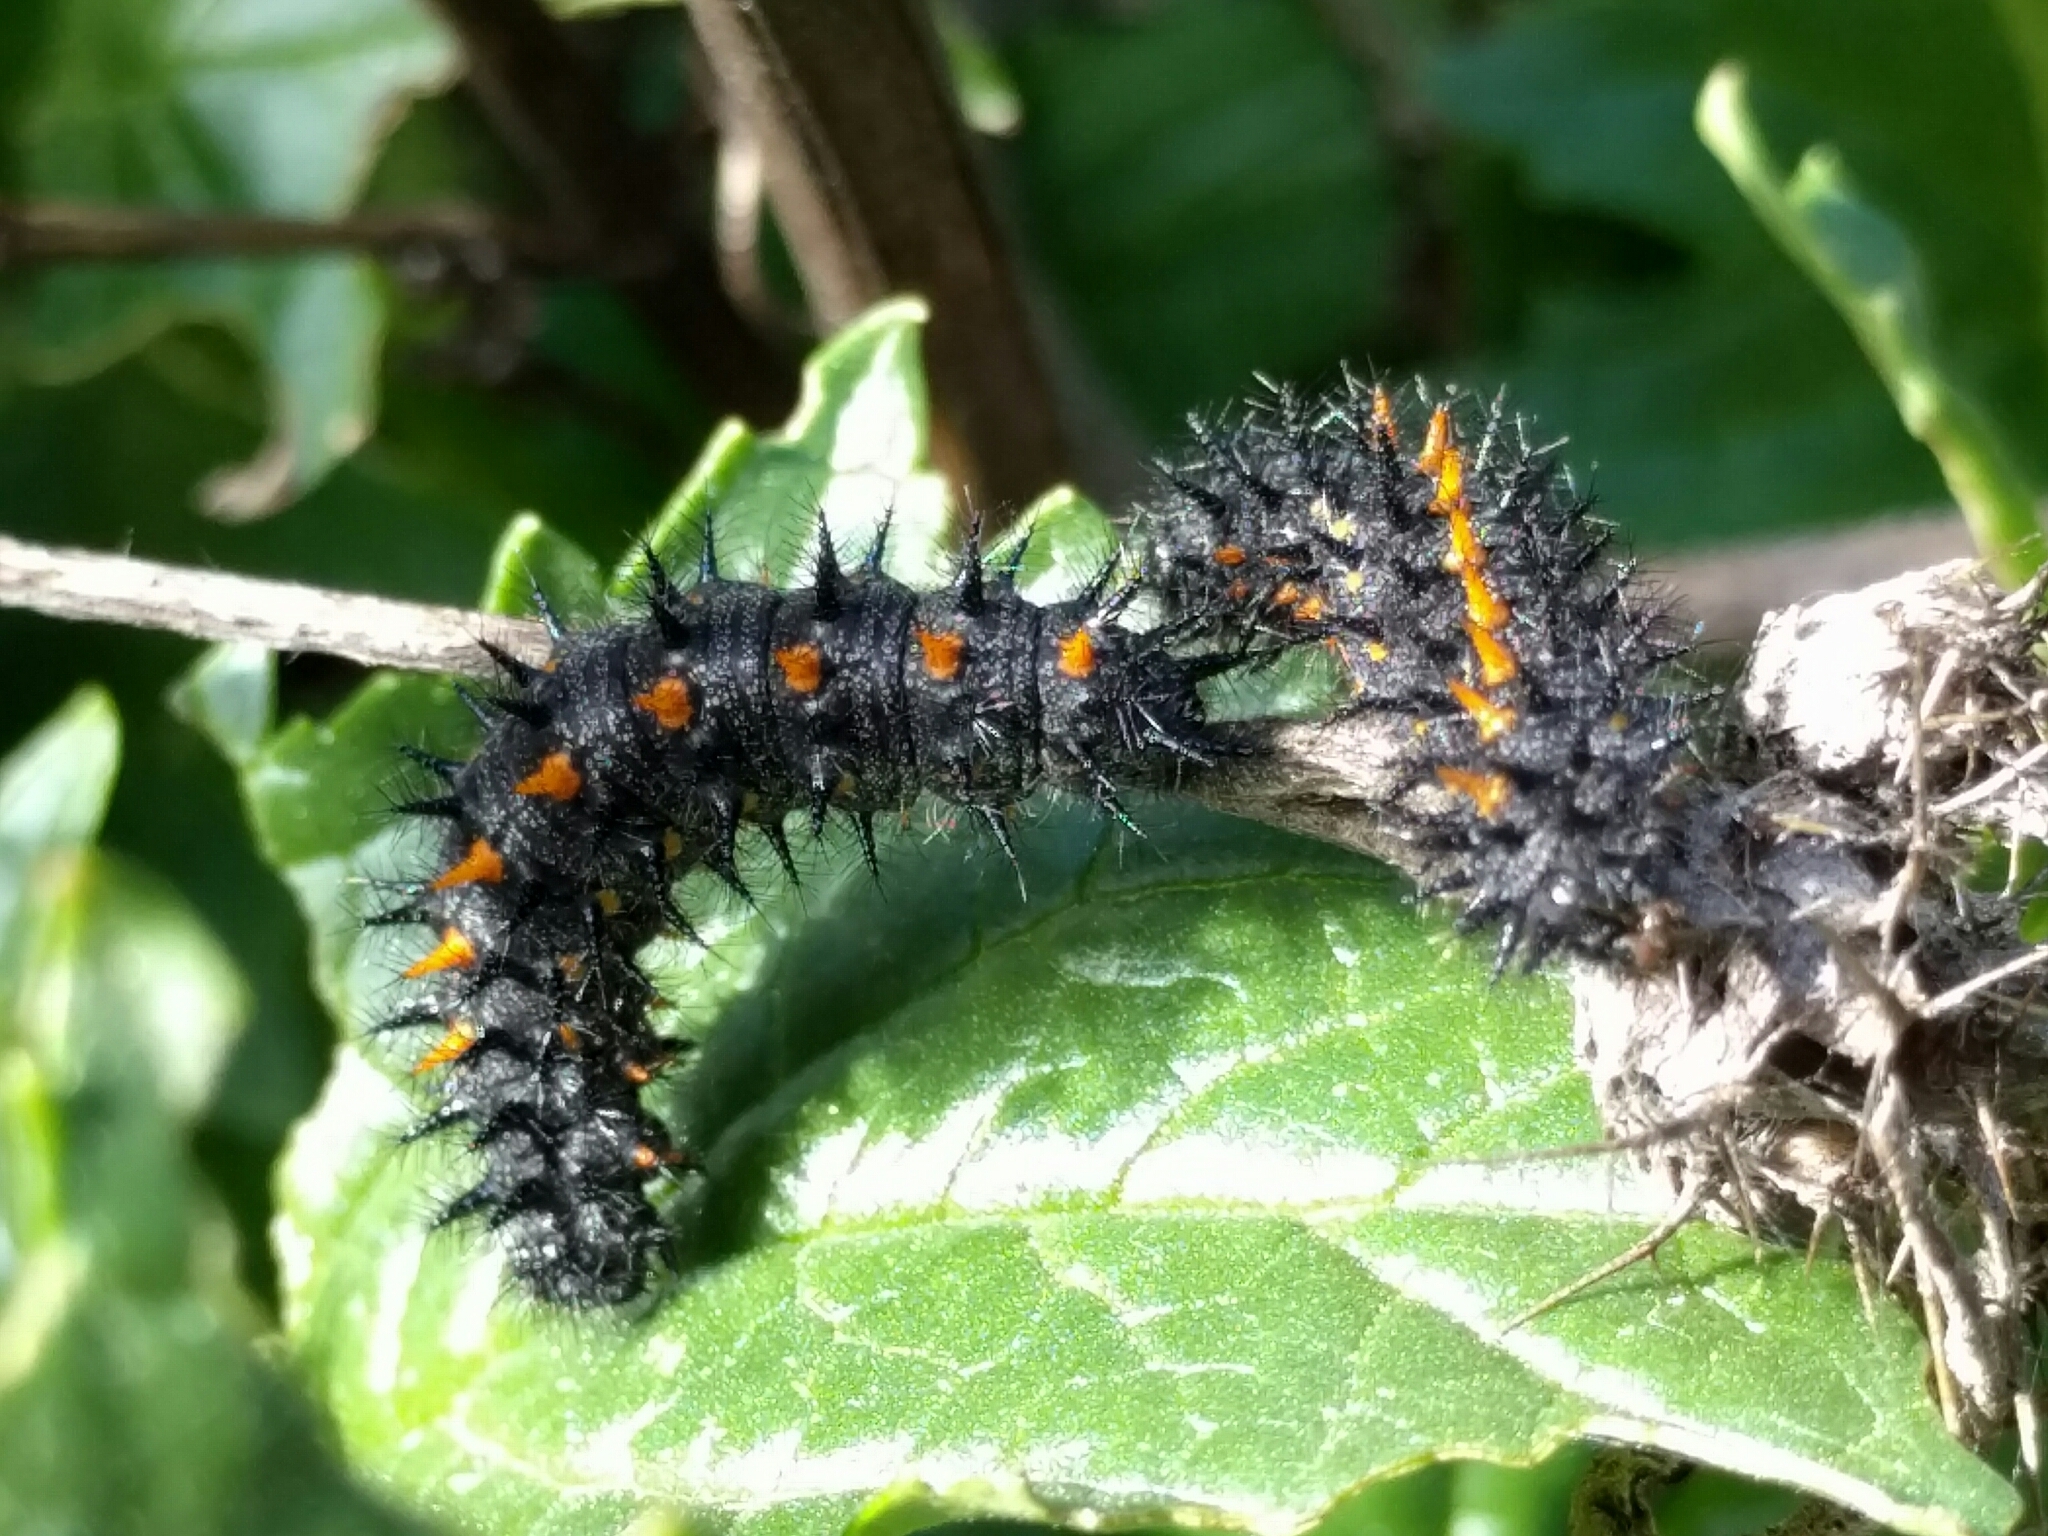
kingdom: Animalia
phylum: Arthropoda
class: Insecta
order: Lepidoptera
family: Nymphalidae
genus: Occidryas
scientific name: Occidryas chalcedona
